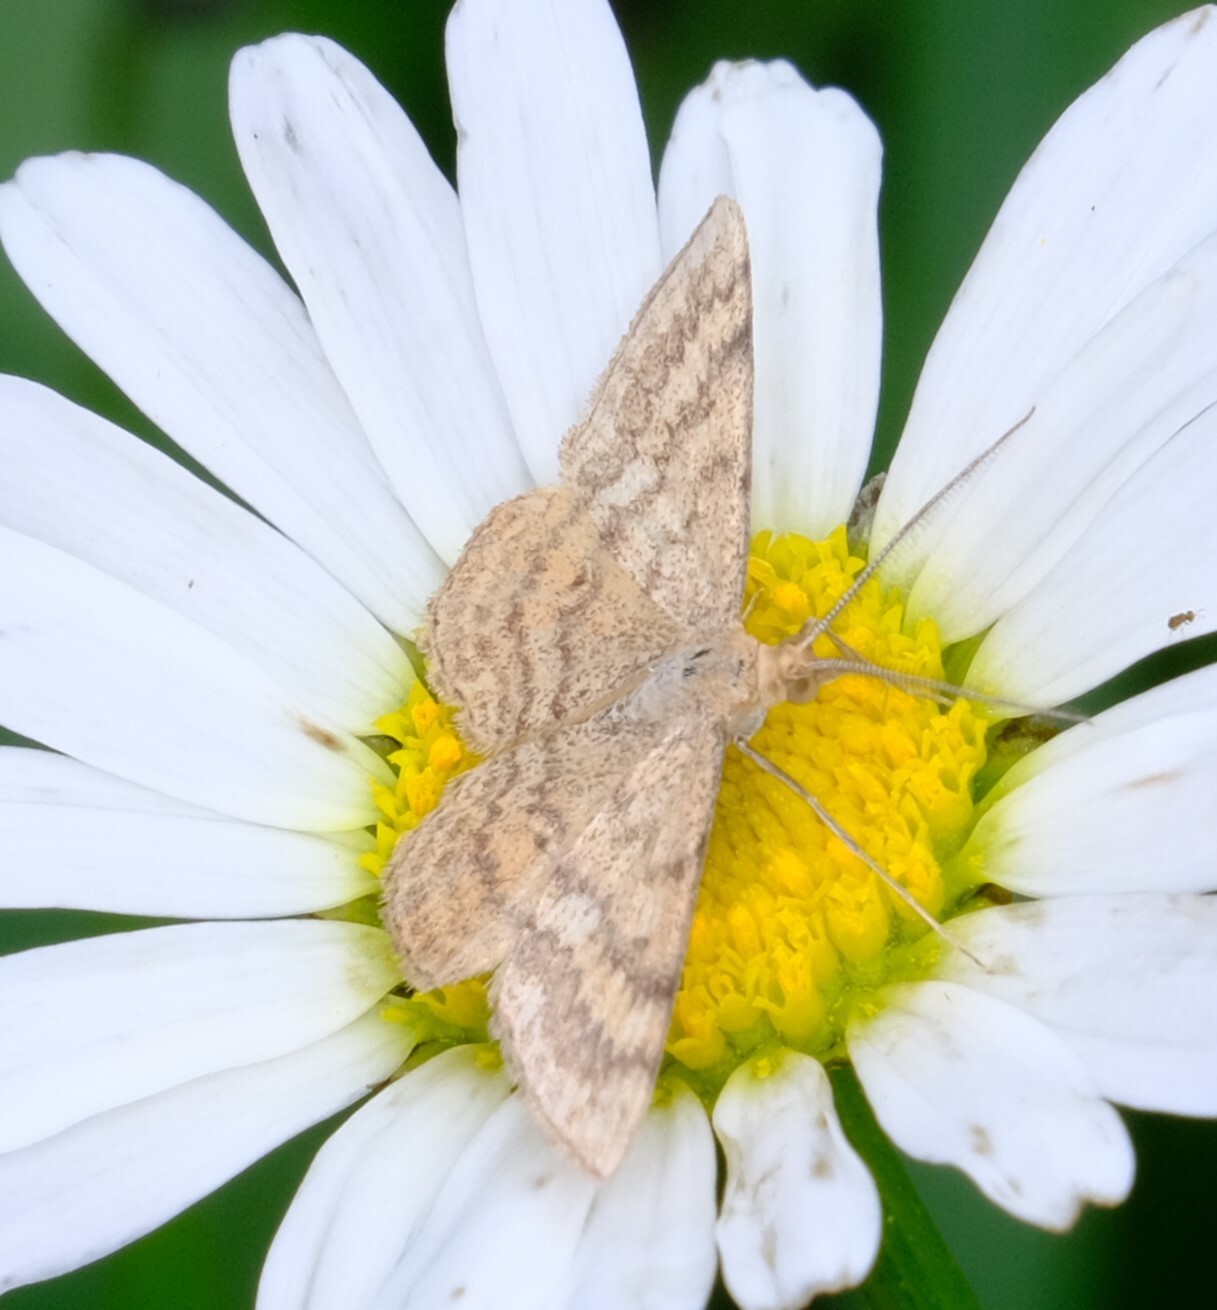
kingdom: Animalia
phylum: Arthropoda
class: Insecta
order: Lepidoptera
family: Geometridae
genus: Scopula
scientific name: Scopula rubraria
